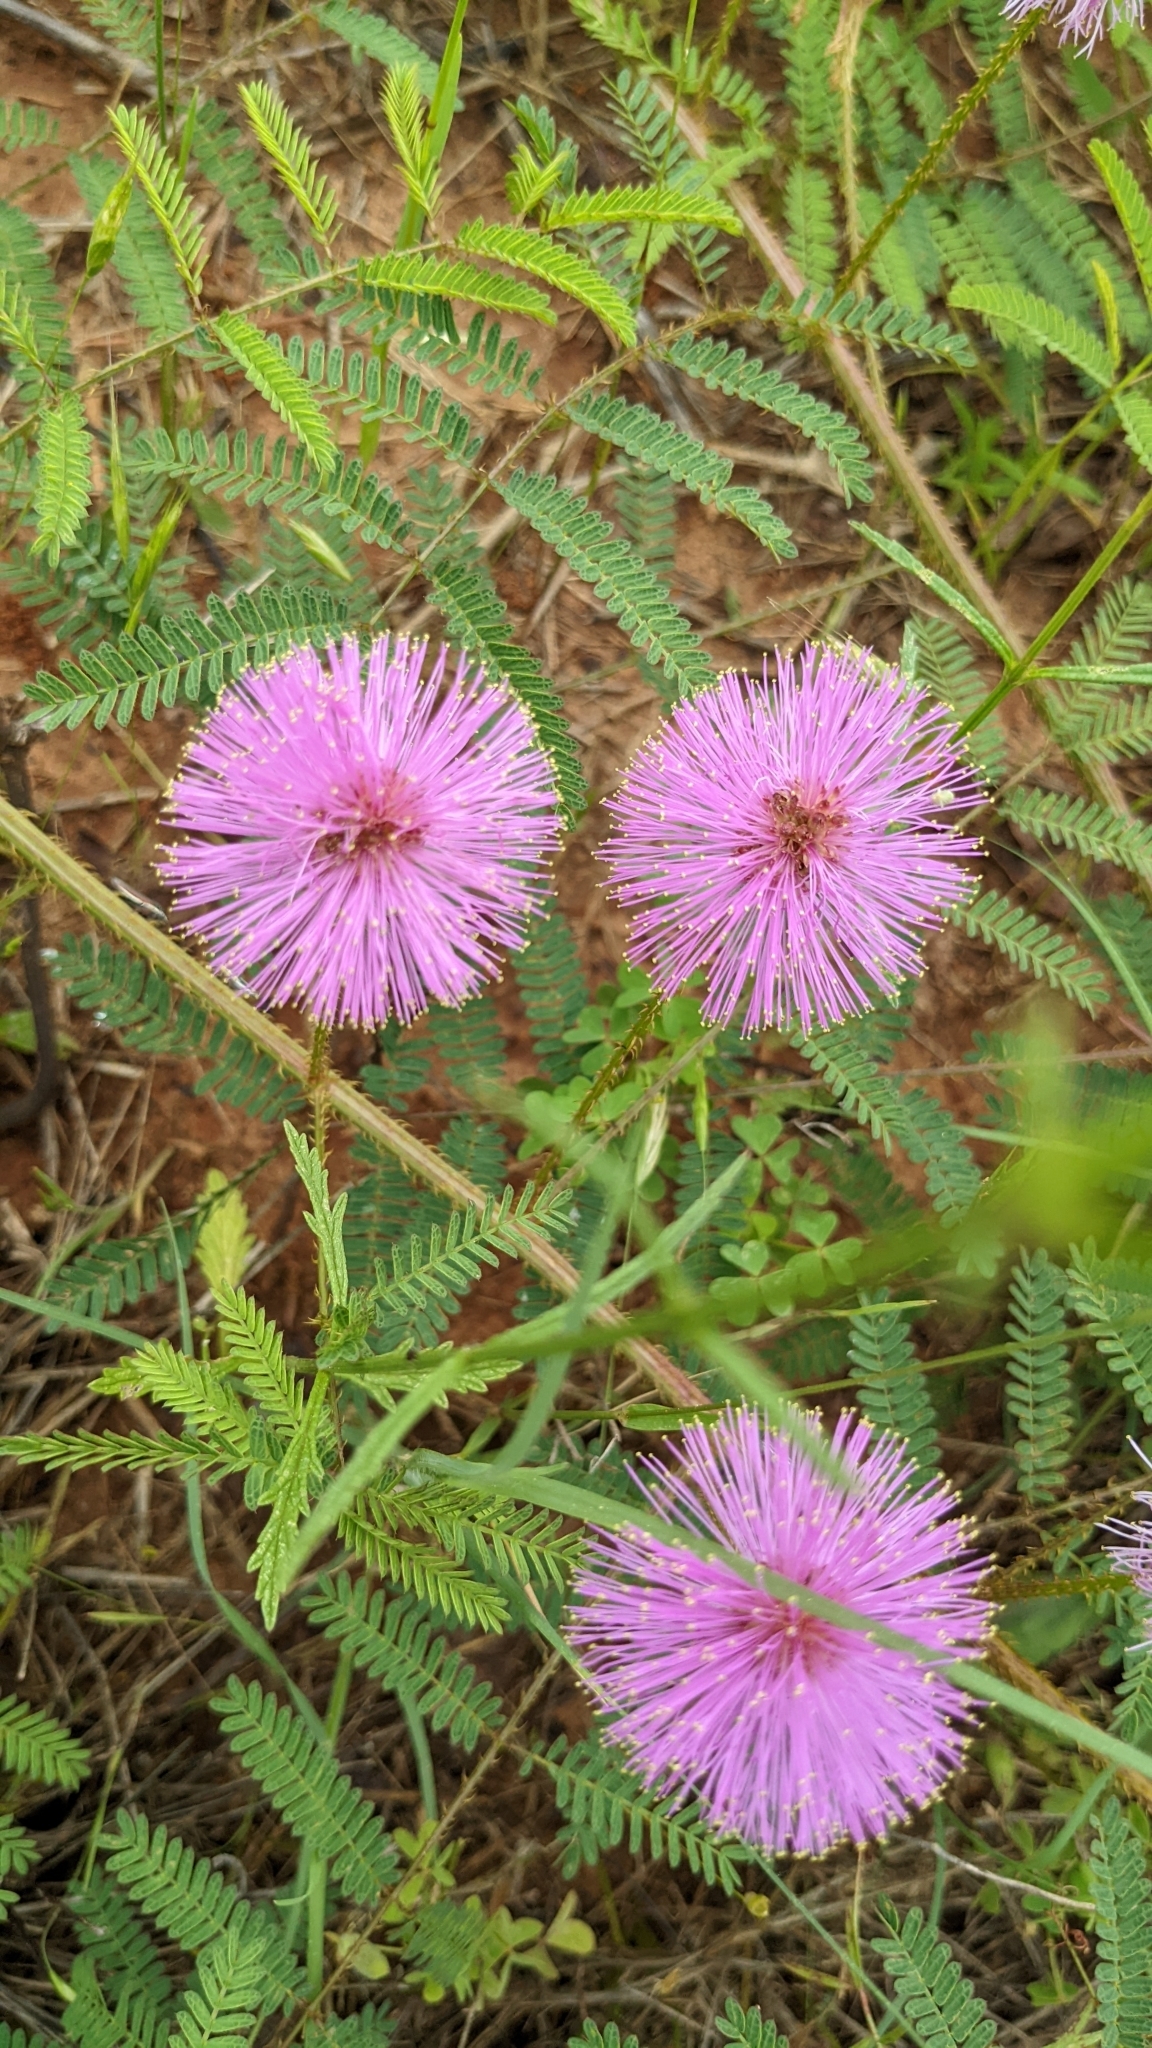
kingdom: Plantae
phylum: Tracheophyta
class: Magnoliopsida
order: Fabales
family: Fabaceae
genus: Mimosa
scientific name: Mimosa quadrivalvis
